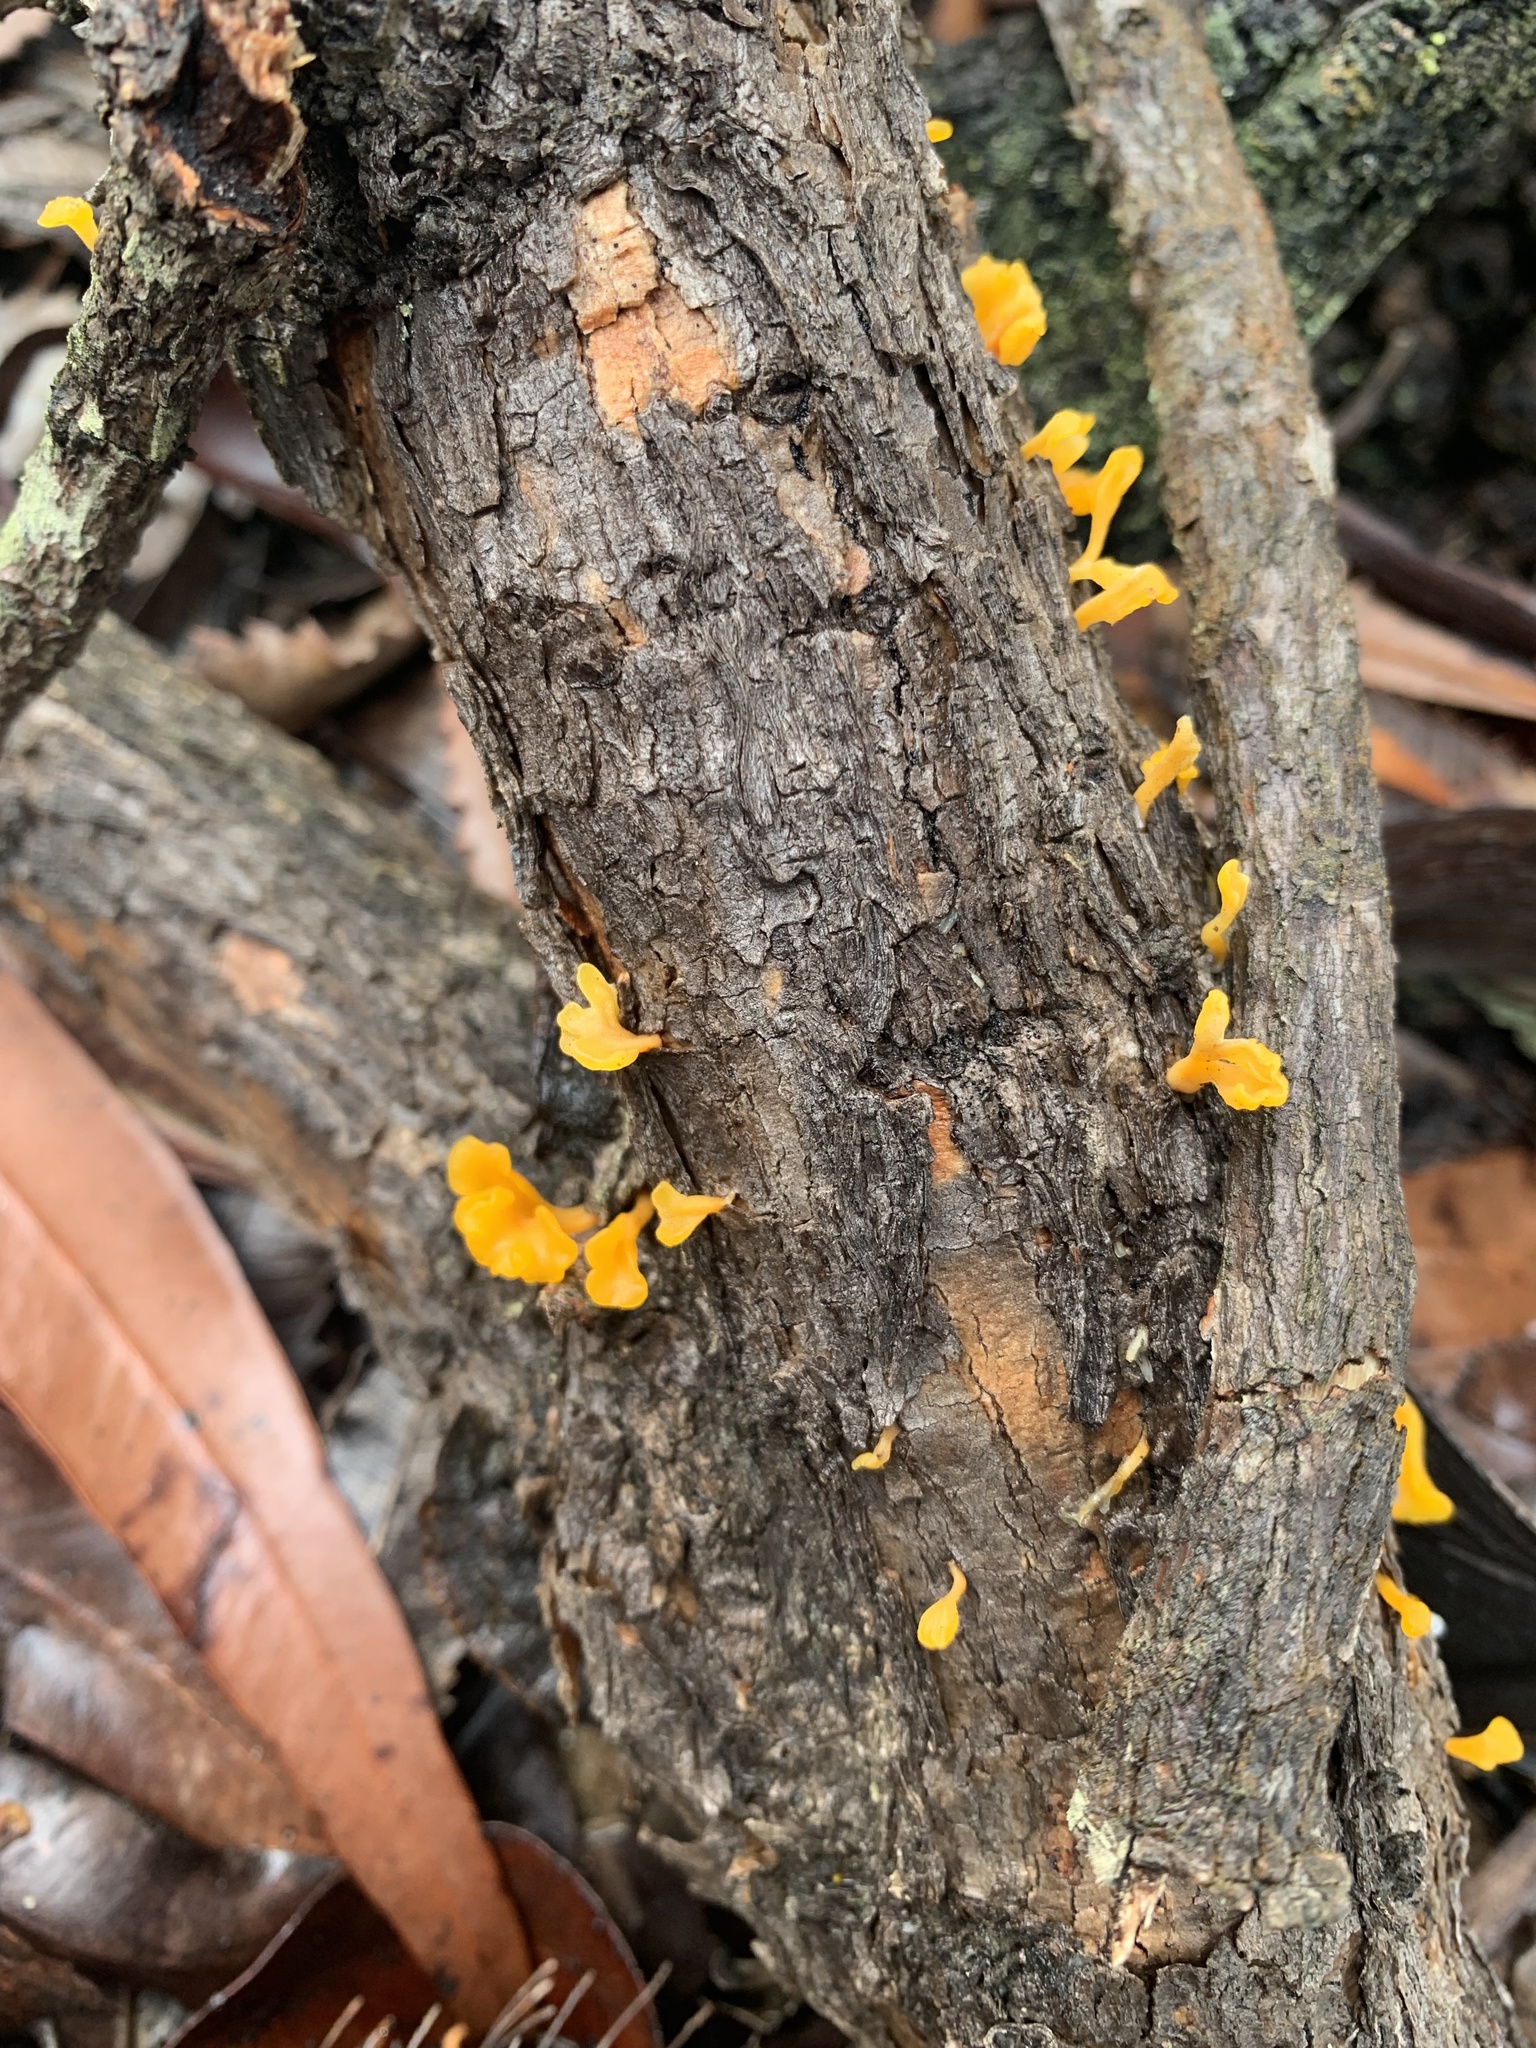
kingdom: Fungi
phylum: Basidiomycota
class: Dacrymycetes
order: Dacrymycetales
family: Dacrymycetaceae
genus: Dacrymyces
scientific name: Dacrymyces spathularius
